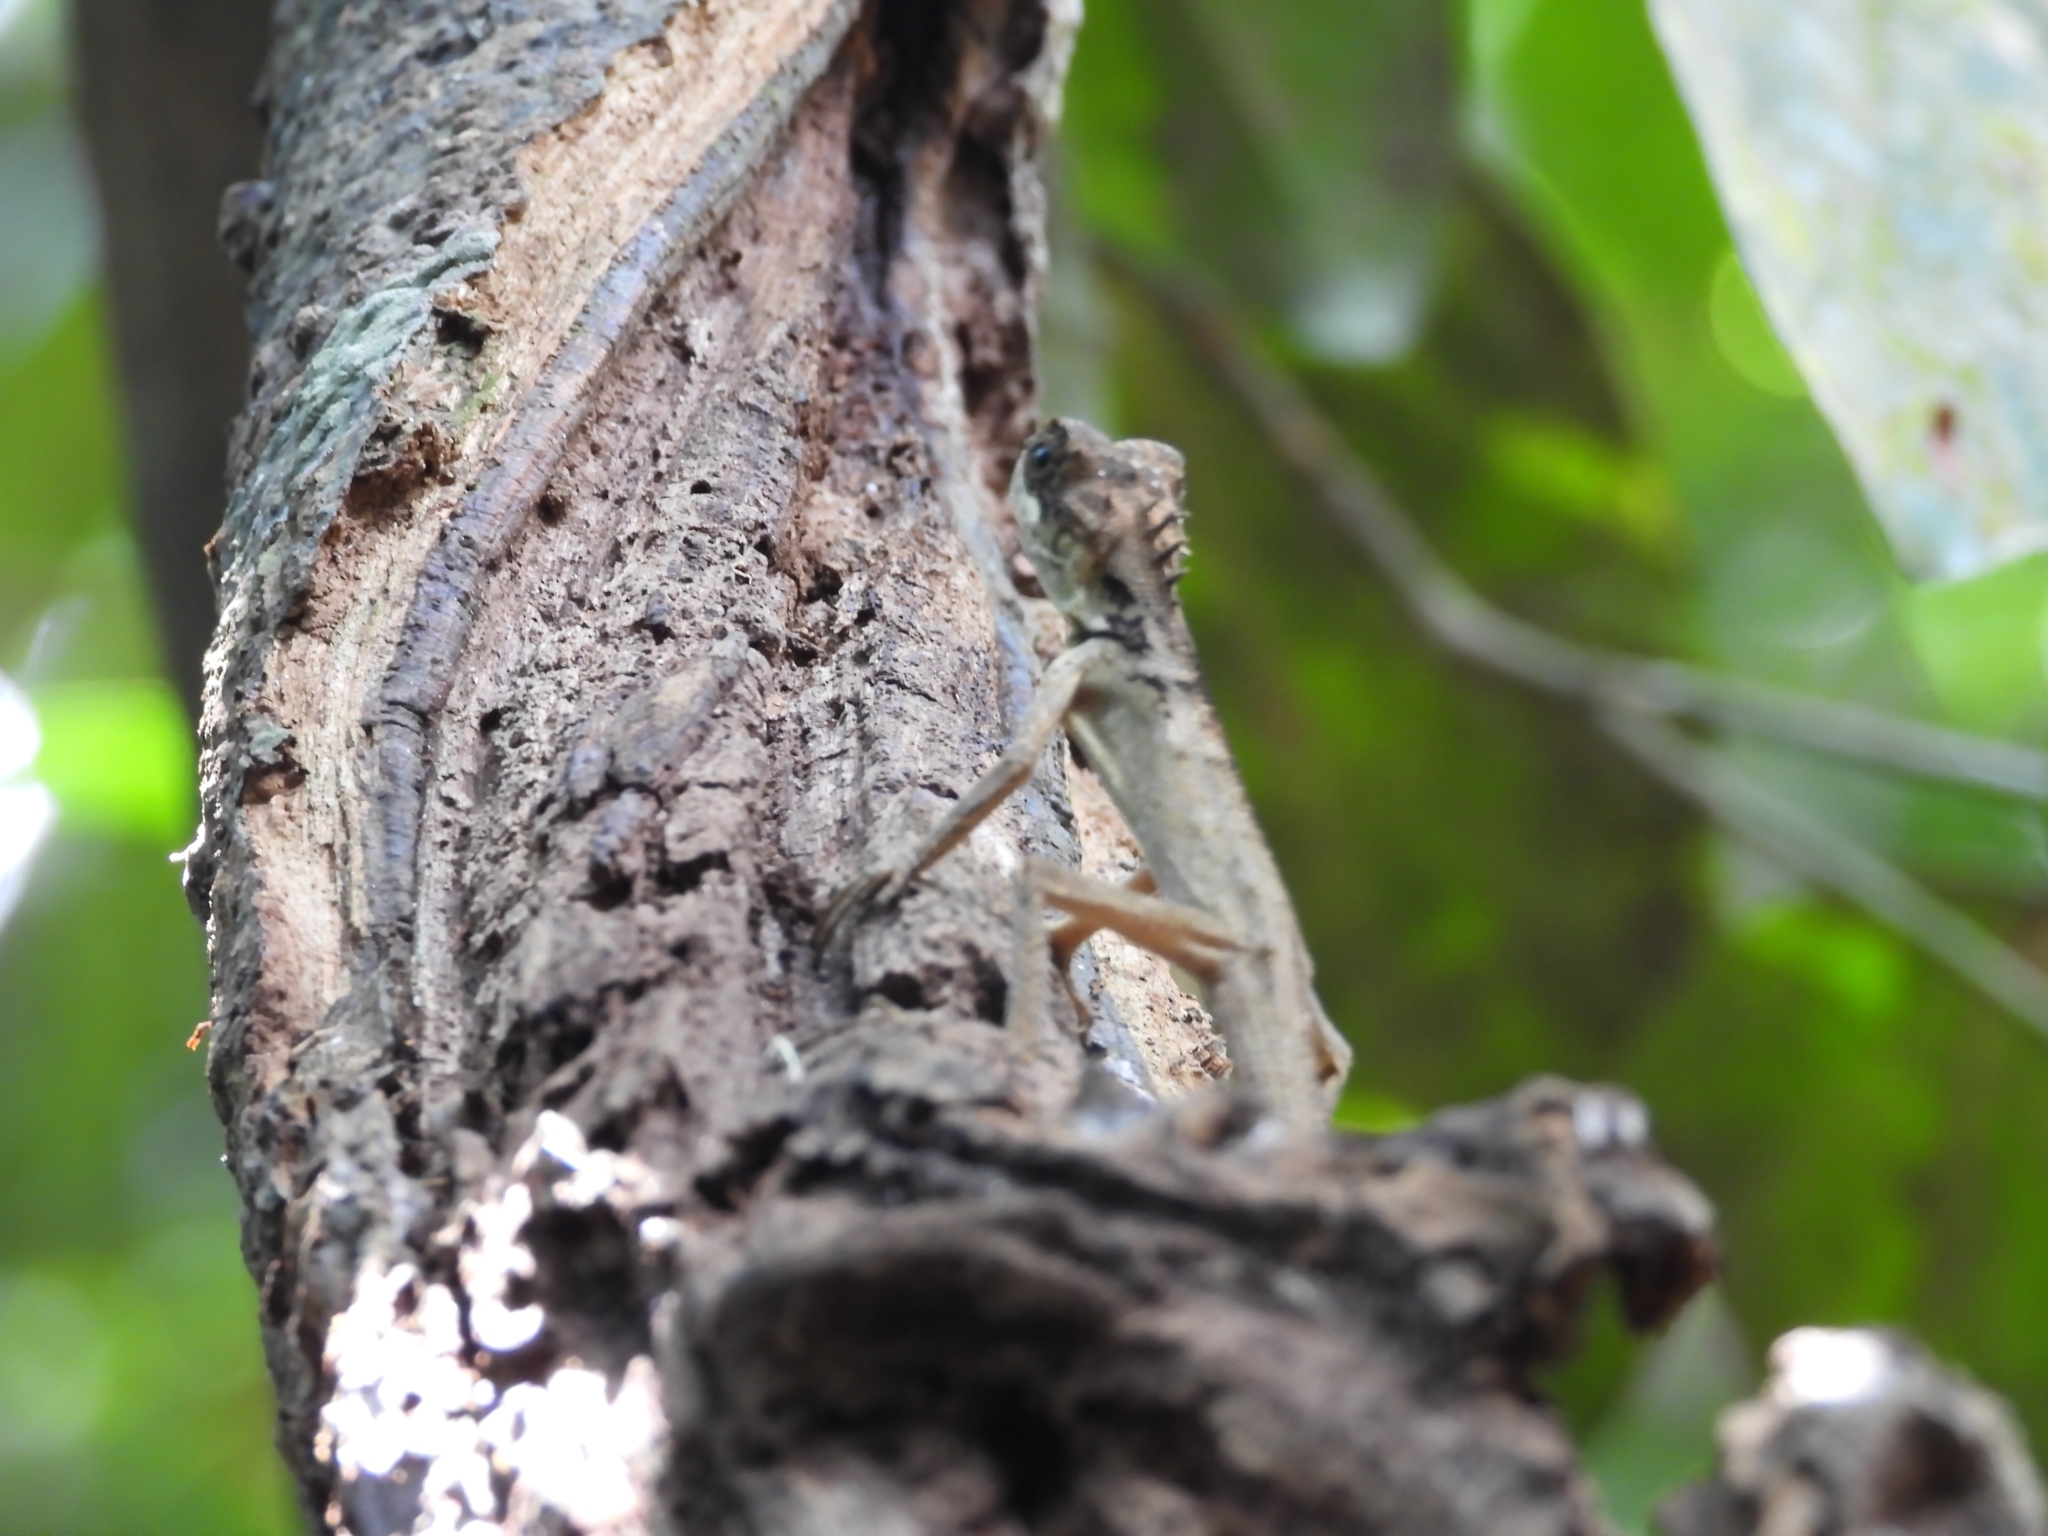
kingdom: Animalia
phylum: Chordata
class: Squamata
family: Agamidae
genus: Monilesaurus
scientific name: Monilesaurus ellioti
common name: Elliot's forest lizard
